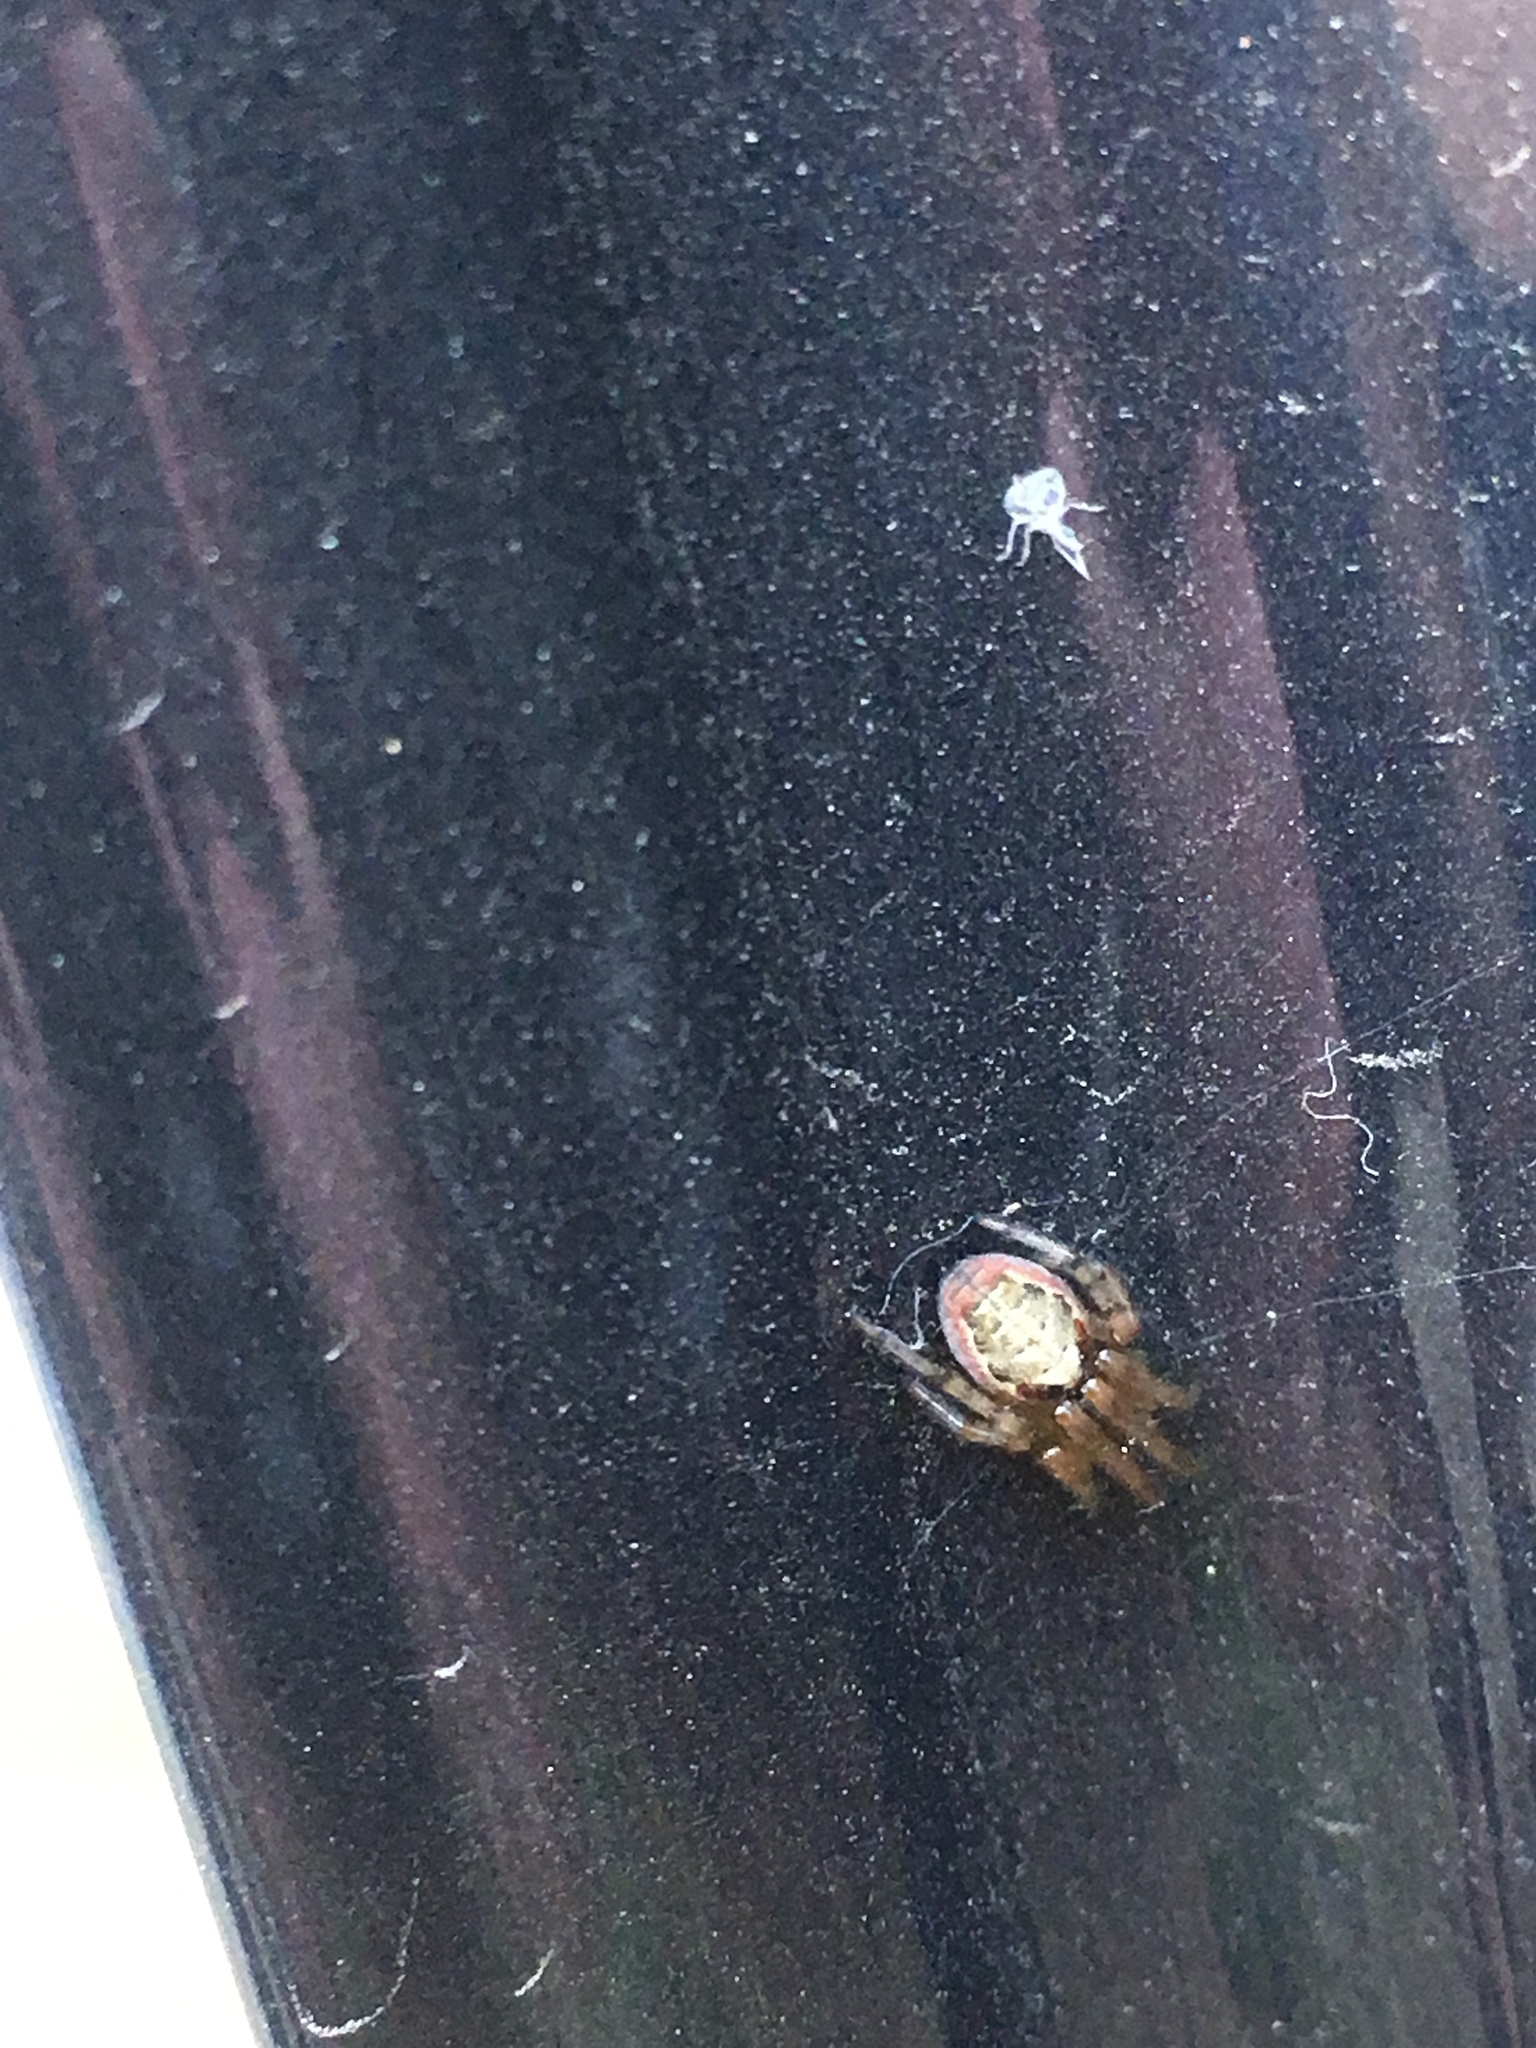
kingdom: Animalia
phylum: Arthropoda
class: Arachnida
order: Araneae
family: Araneidae
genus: Zygiella
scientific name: Zygiella x-notata
